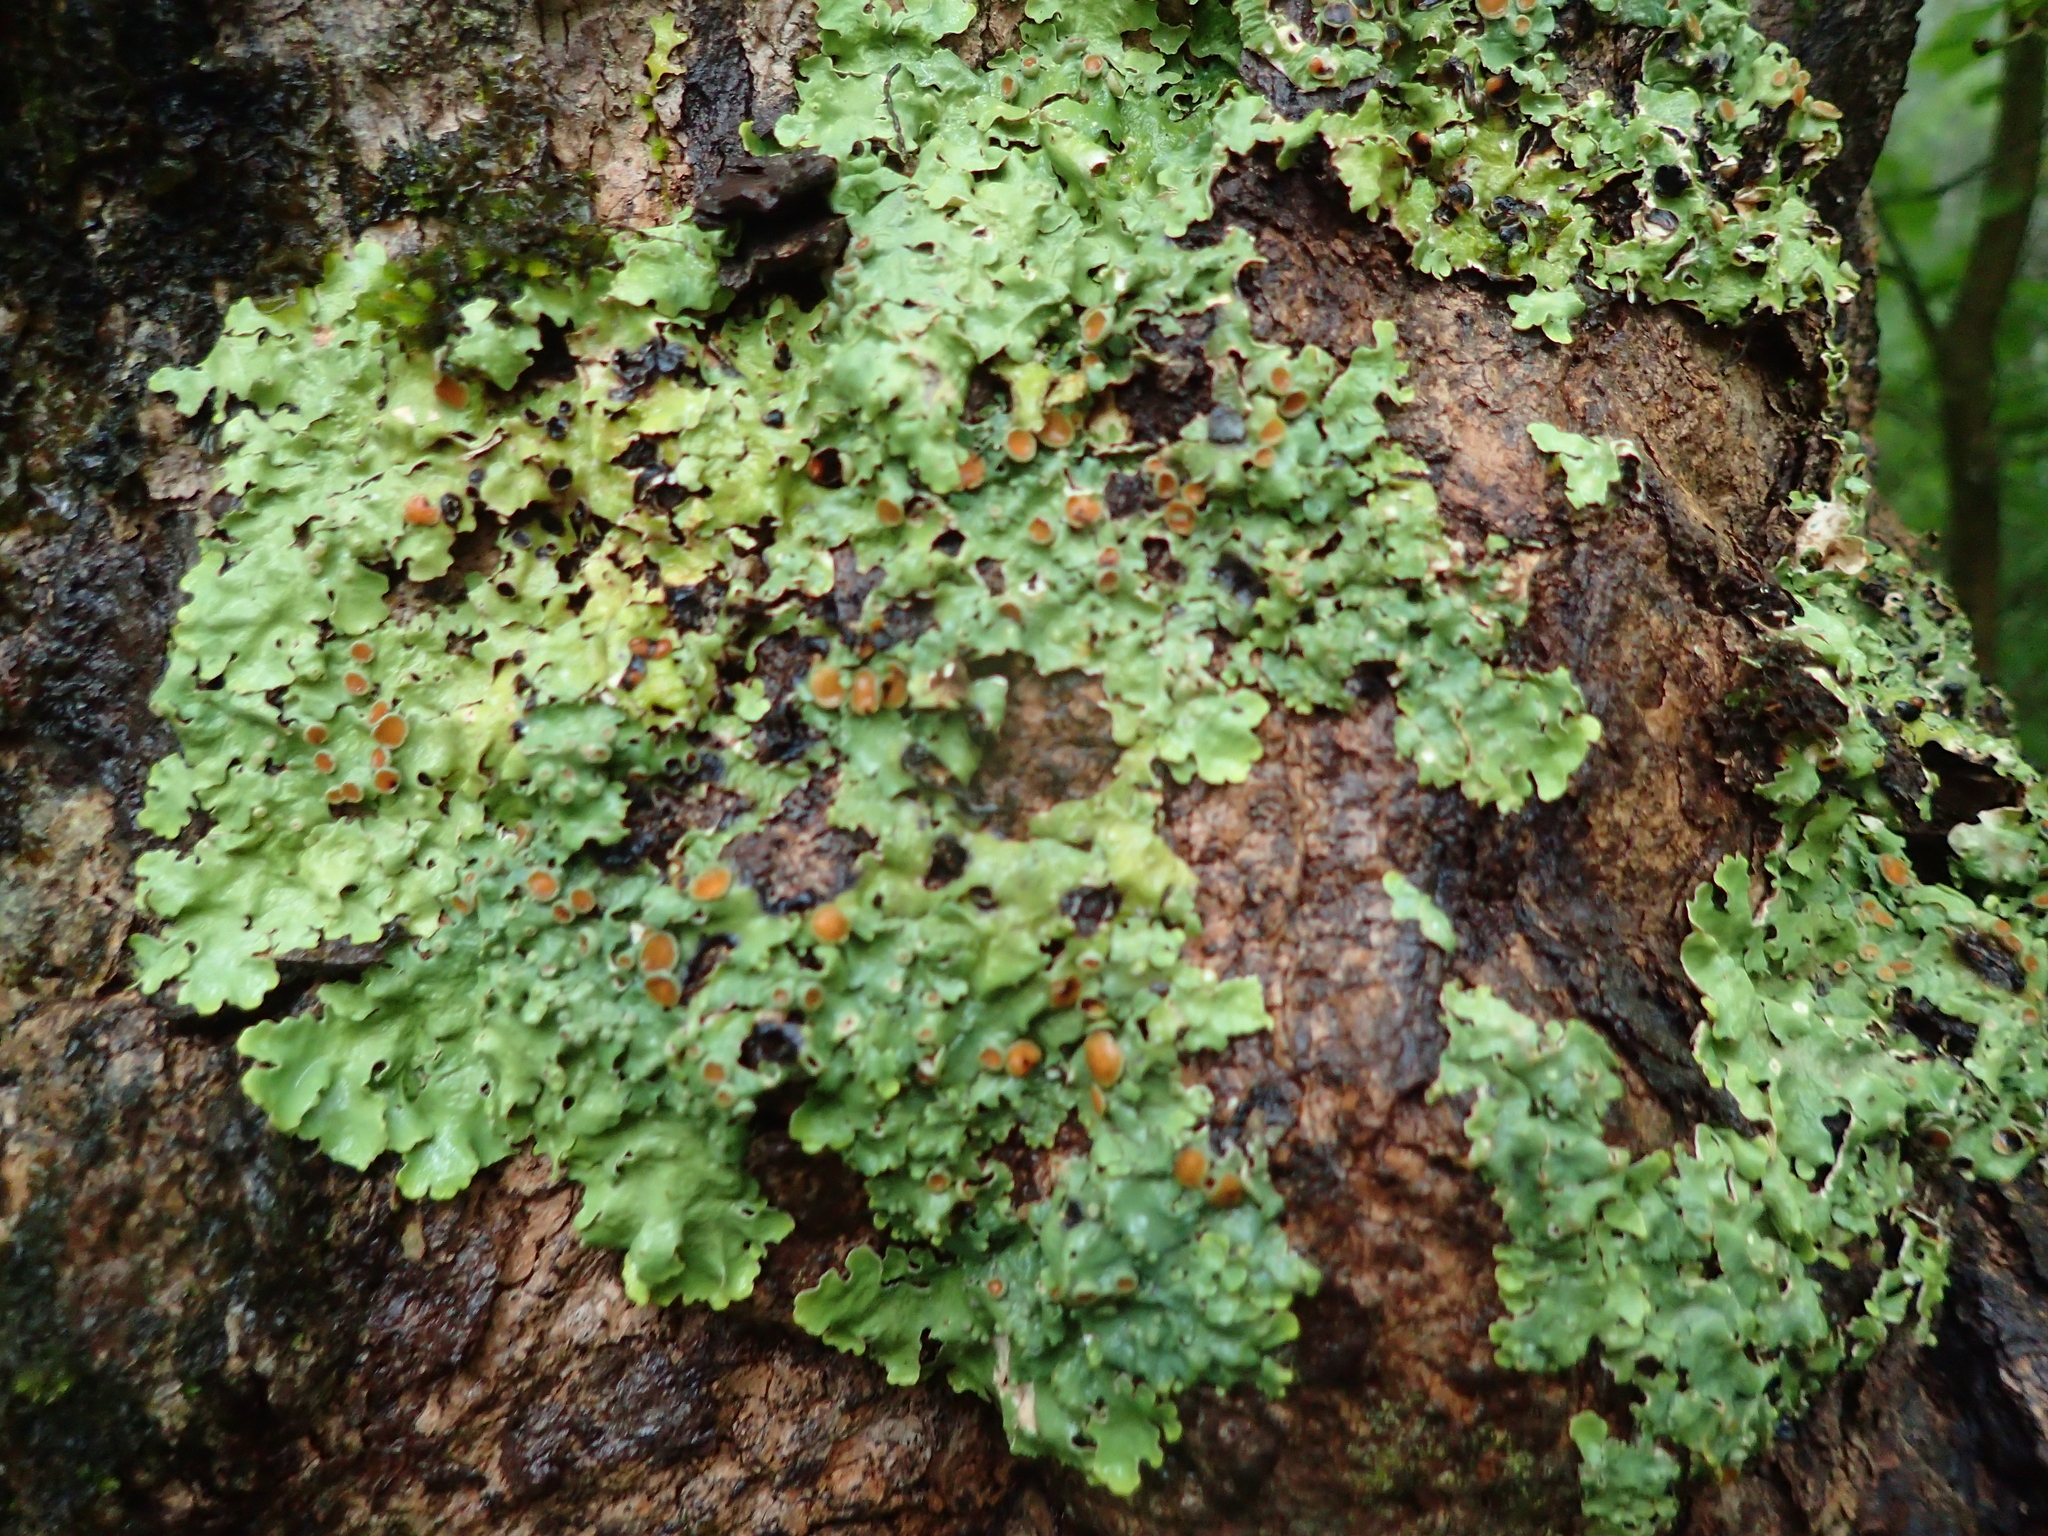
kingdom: Fungi
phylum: Ascomycota
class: Lecanoromycetes
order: Peltigerales
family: Lobariaceae
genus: Ricasolia
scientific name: Ricasolia quercizans
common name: Smooth lungwort
